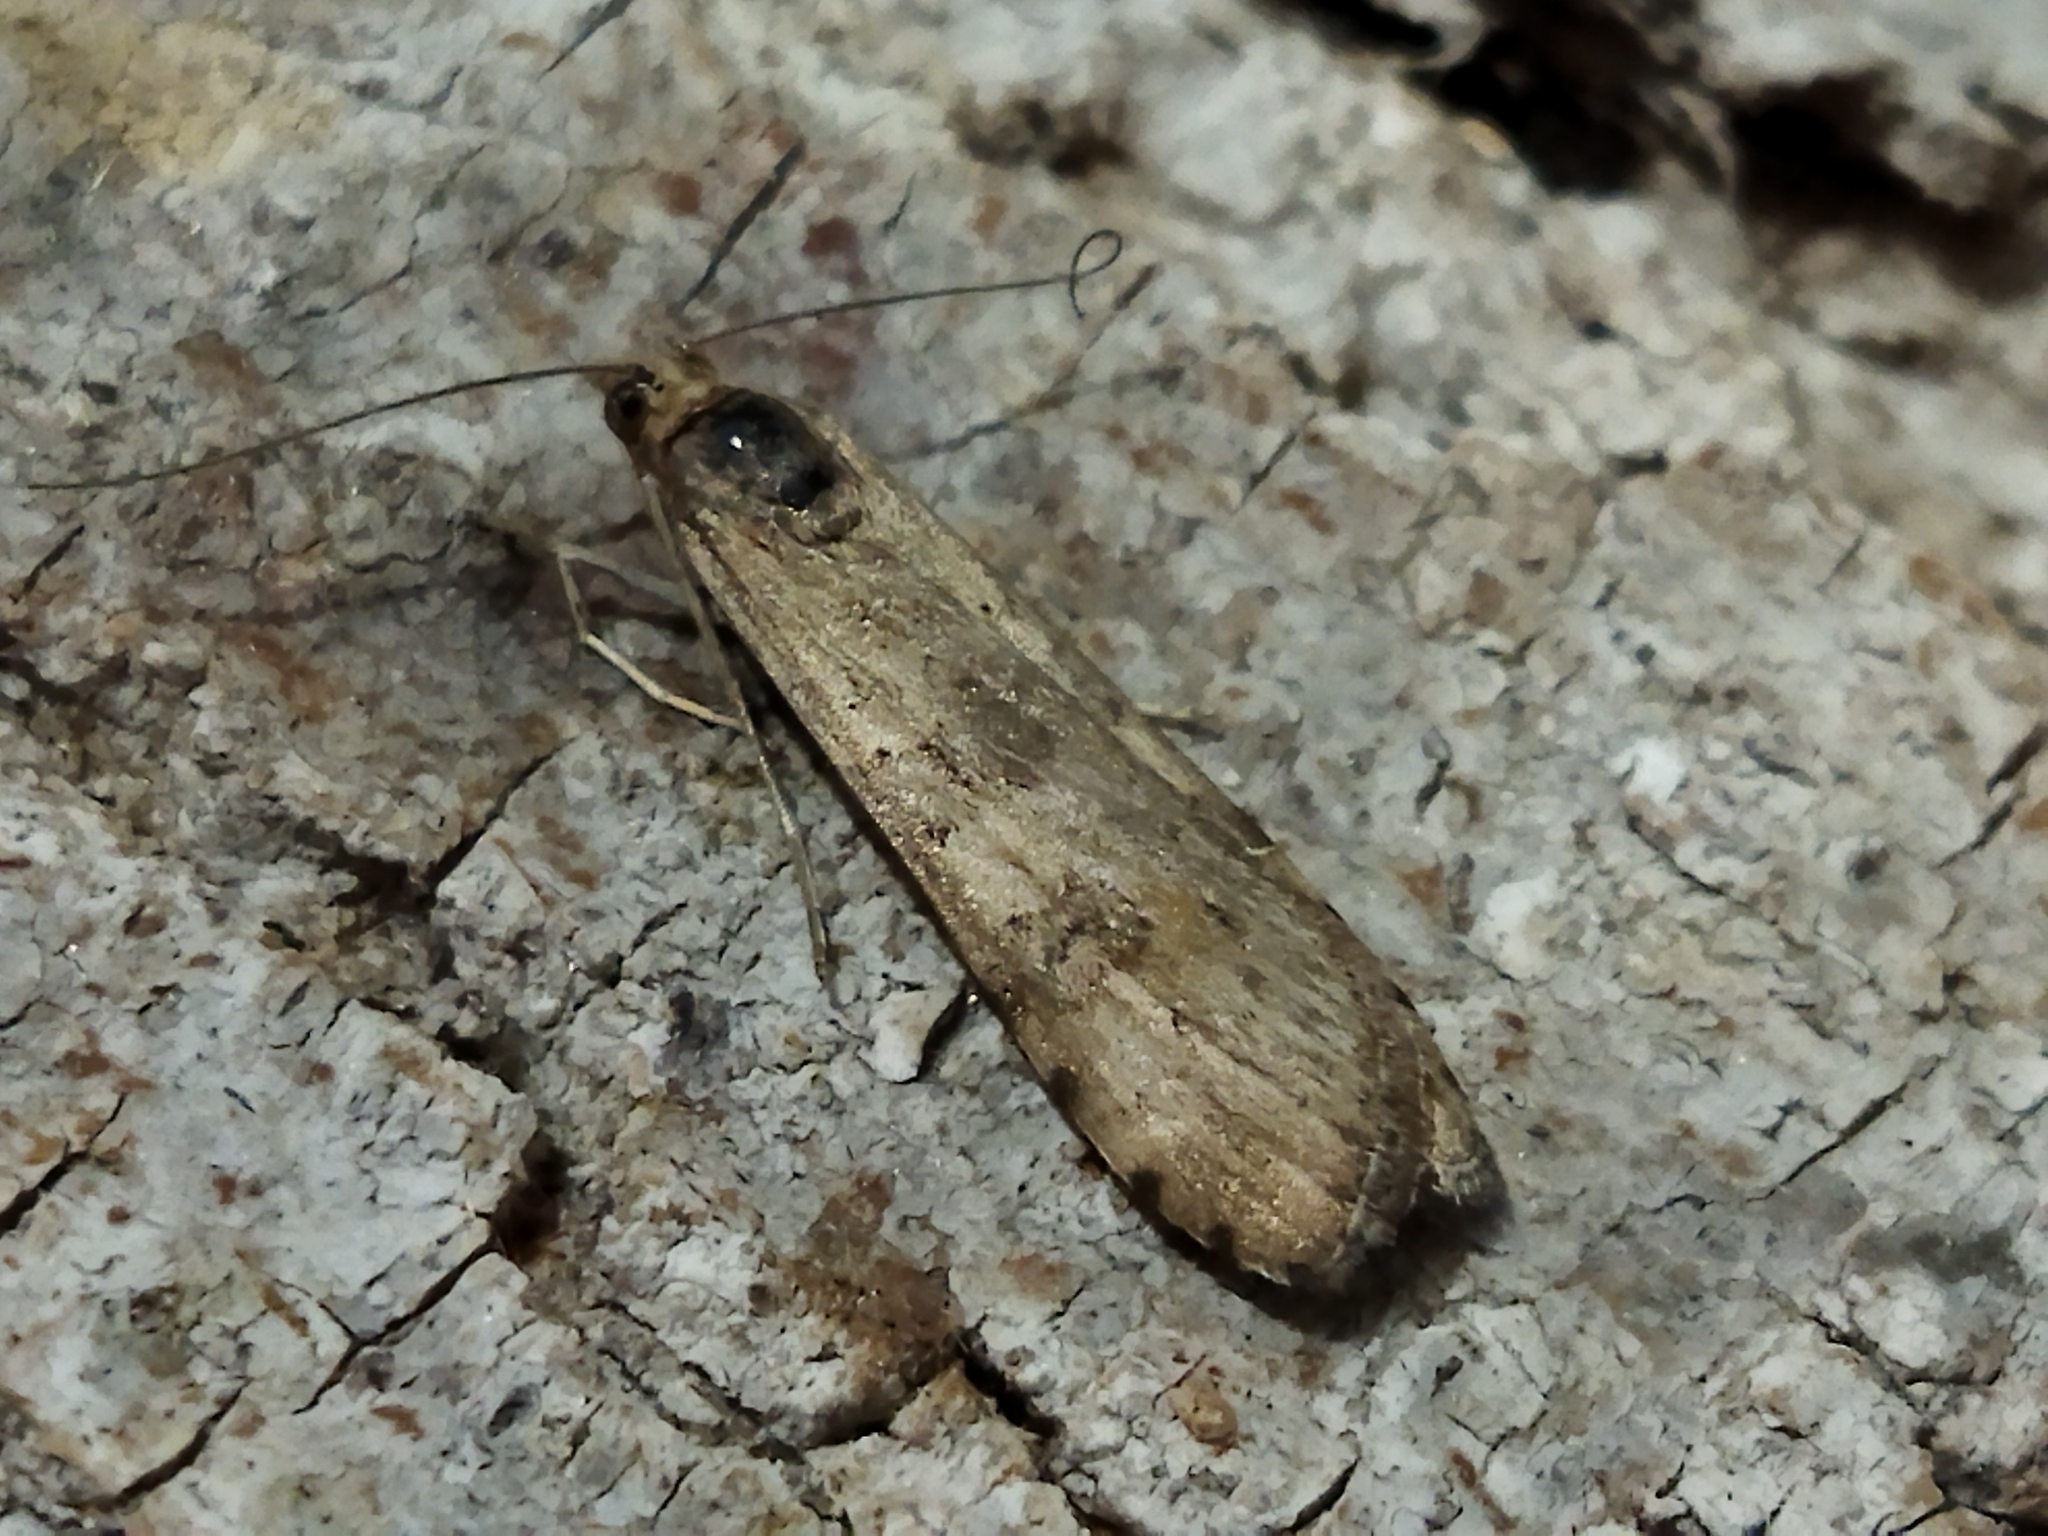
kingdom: Animalia
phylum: Arthropoda
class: Insecta
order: Lepidoptera
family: Crambidae
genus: Nomophila
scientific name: Nomophila noctuella
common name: Rush veneer
